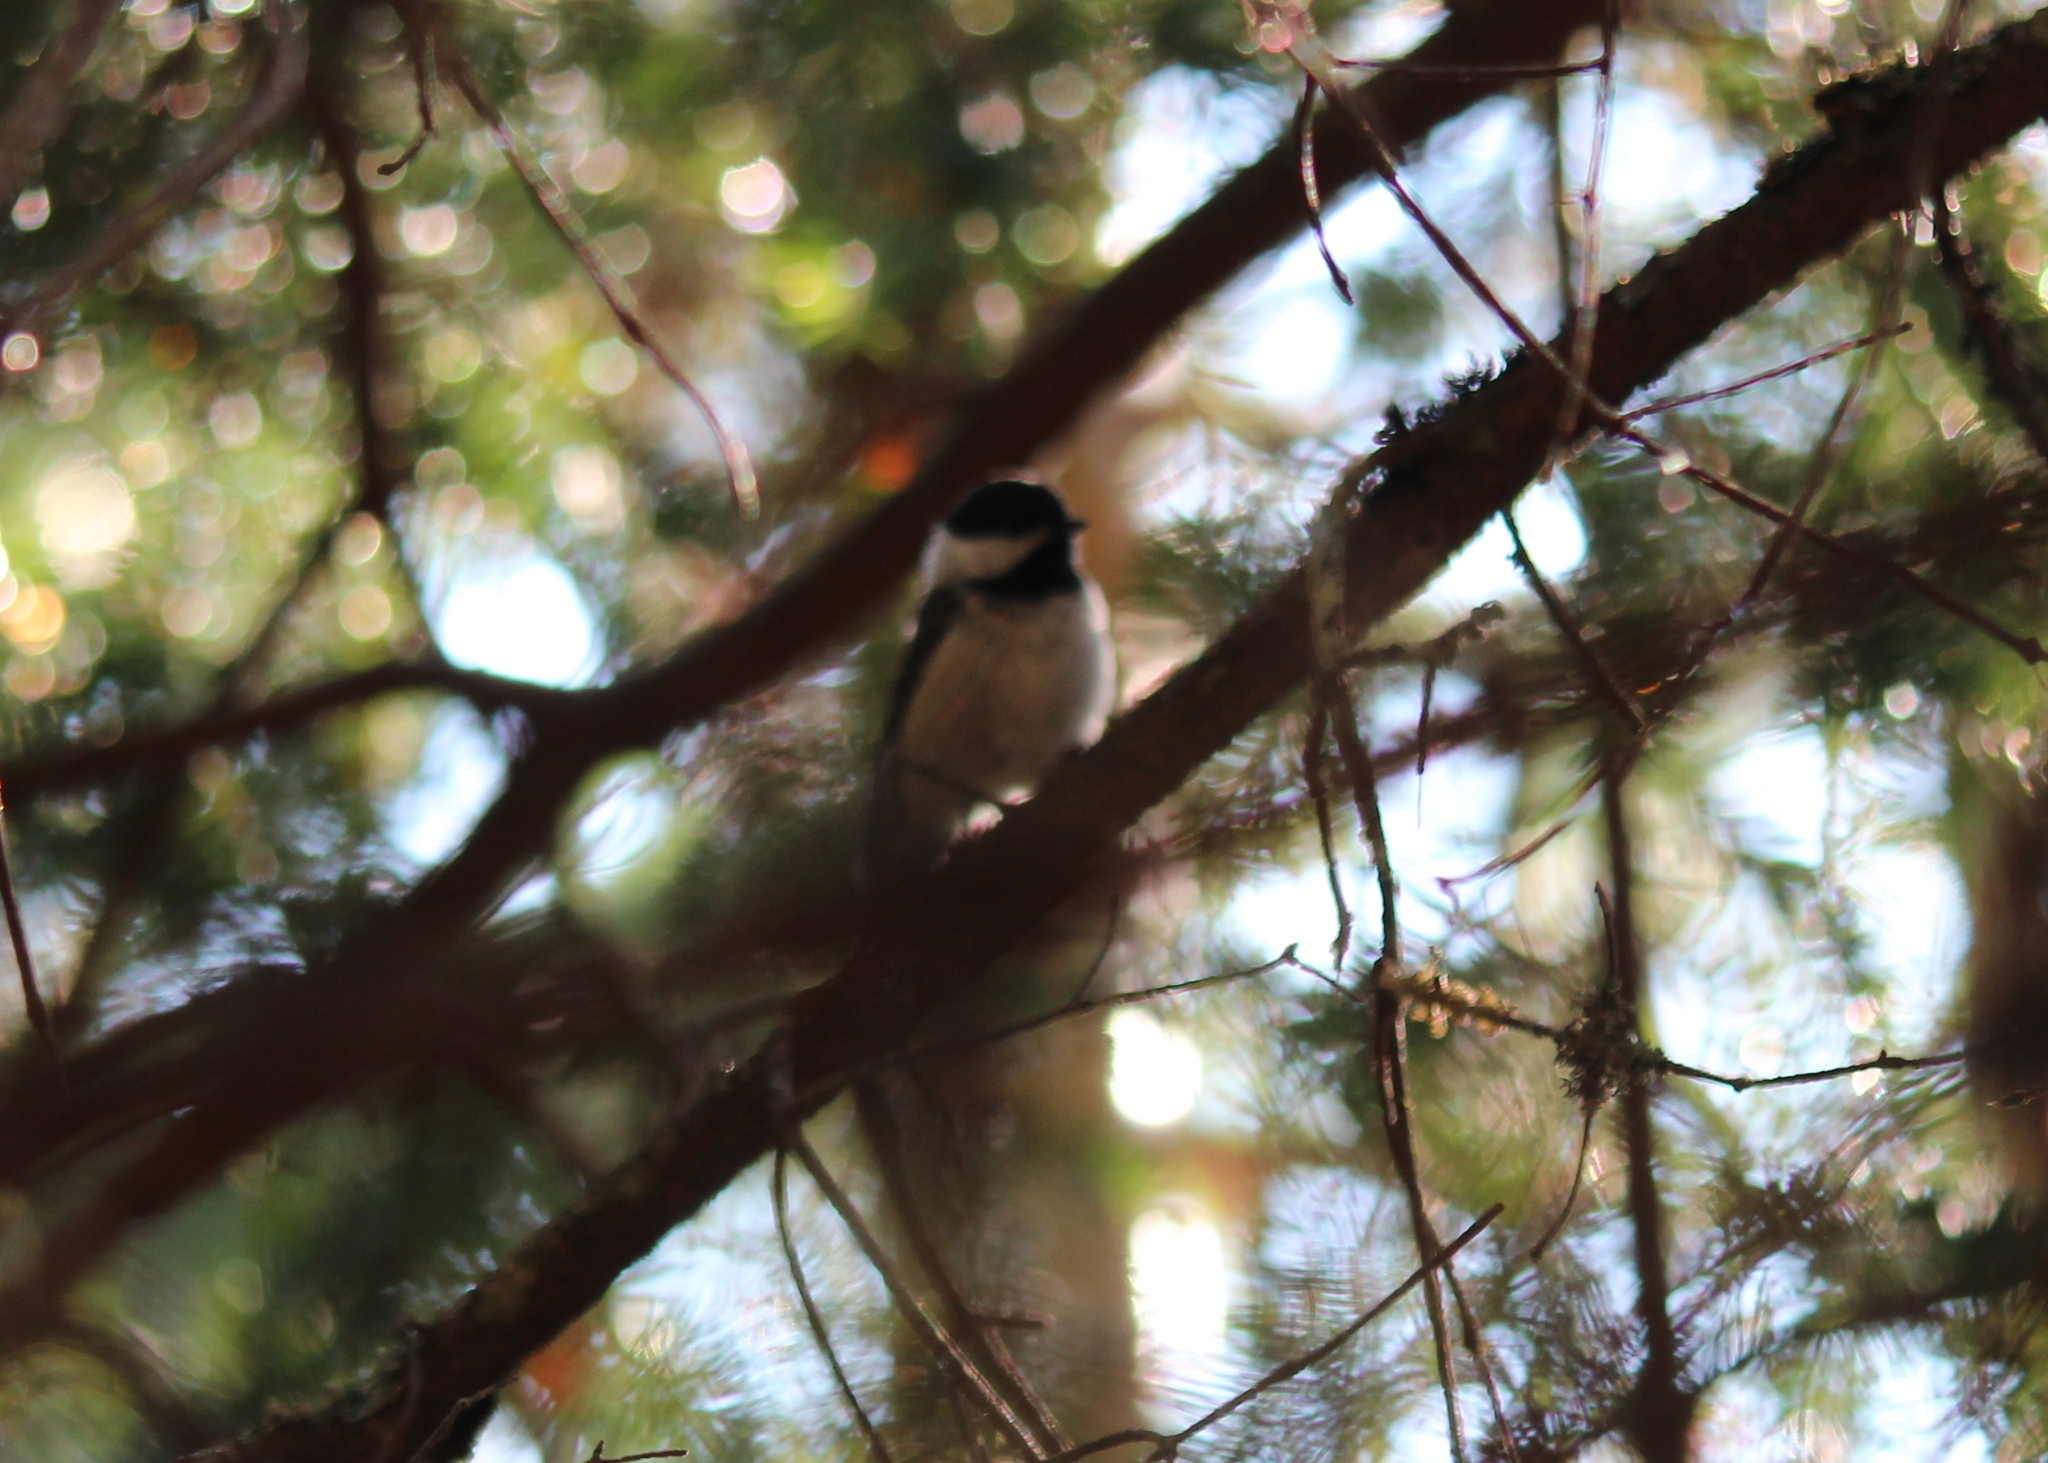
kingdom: Animalia
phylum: Chordata
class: Aves
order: Passeriformes
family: Paridae
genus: Poecile
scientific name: Poecile atricapillus
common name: Black-capped chickadee
